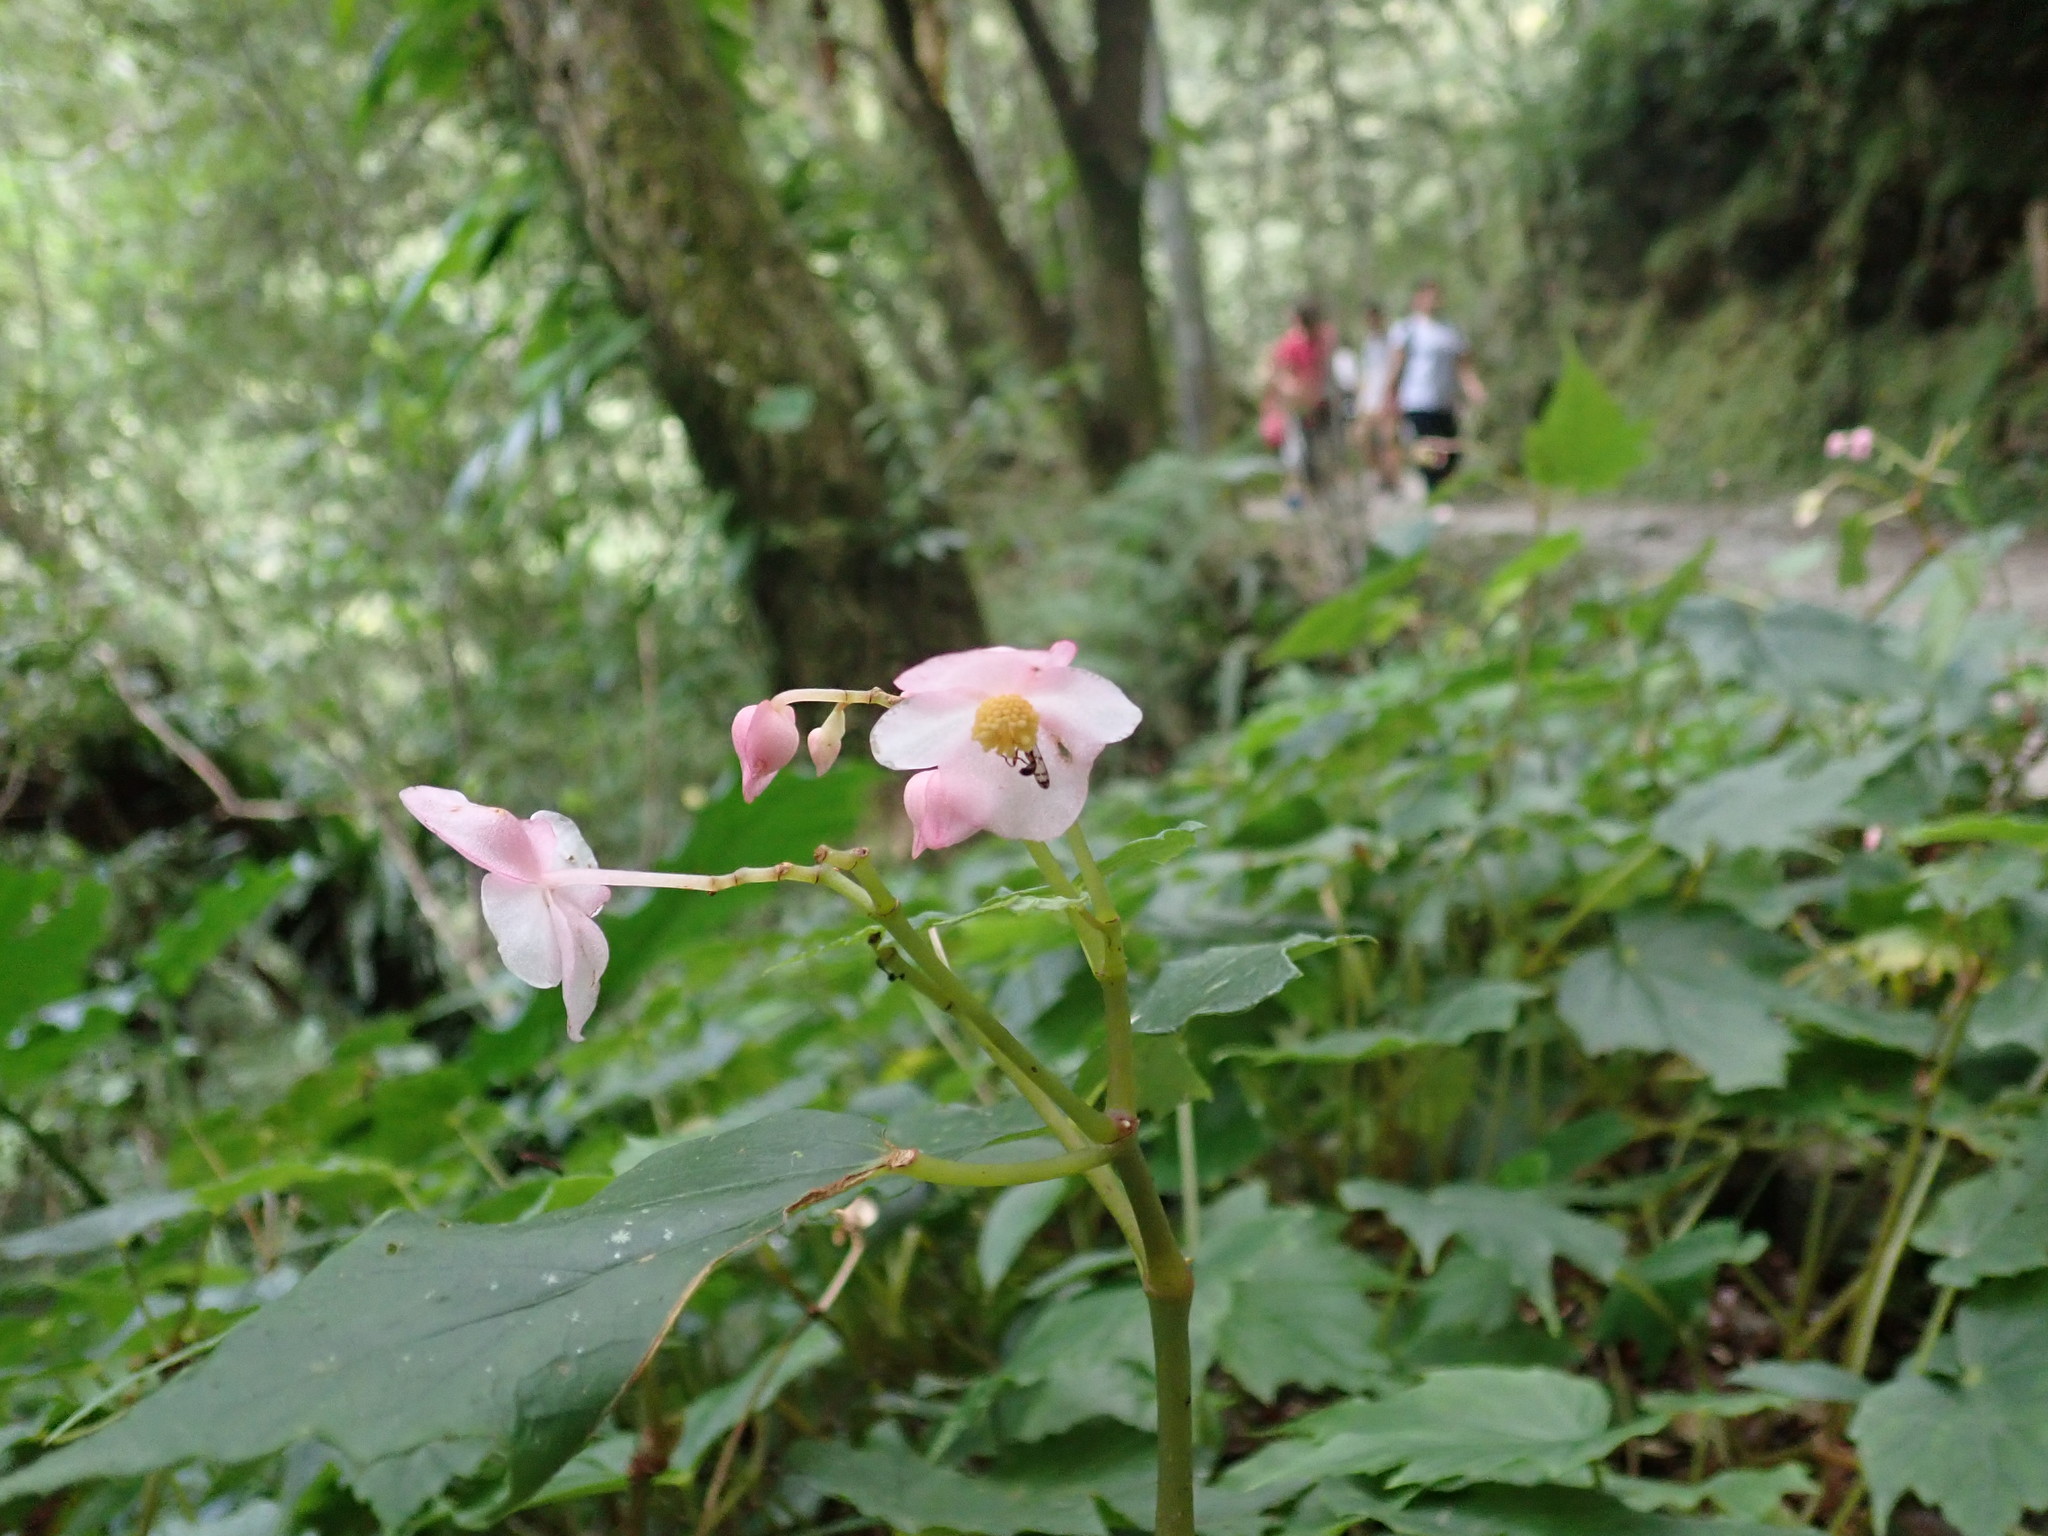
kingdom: Plantae
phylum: Tracheophyta
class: Magnoliopsida
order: Cucurbitales
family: Begoniaceae
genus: Begonia
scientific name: Begonia formosana
